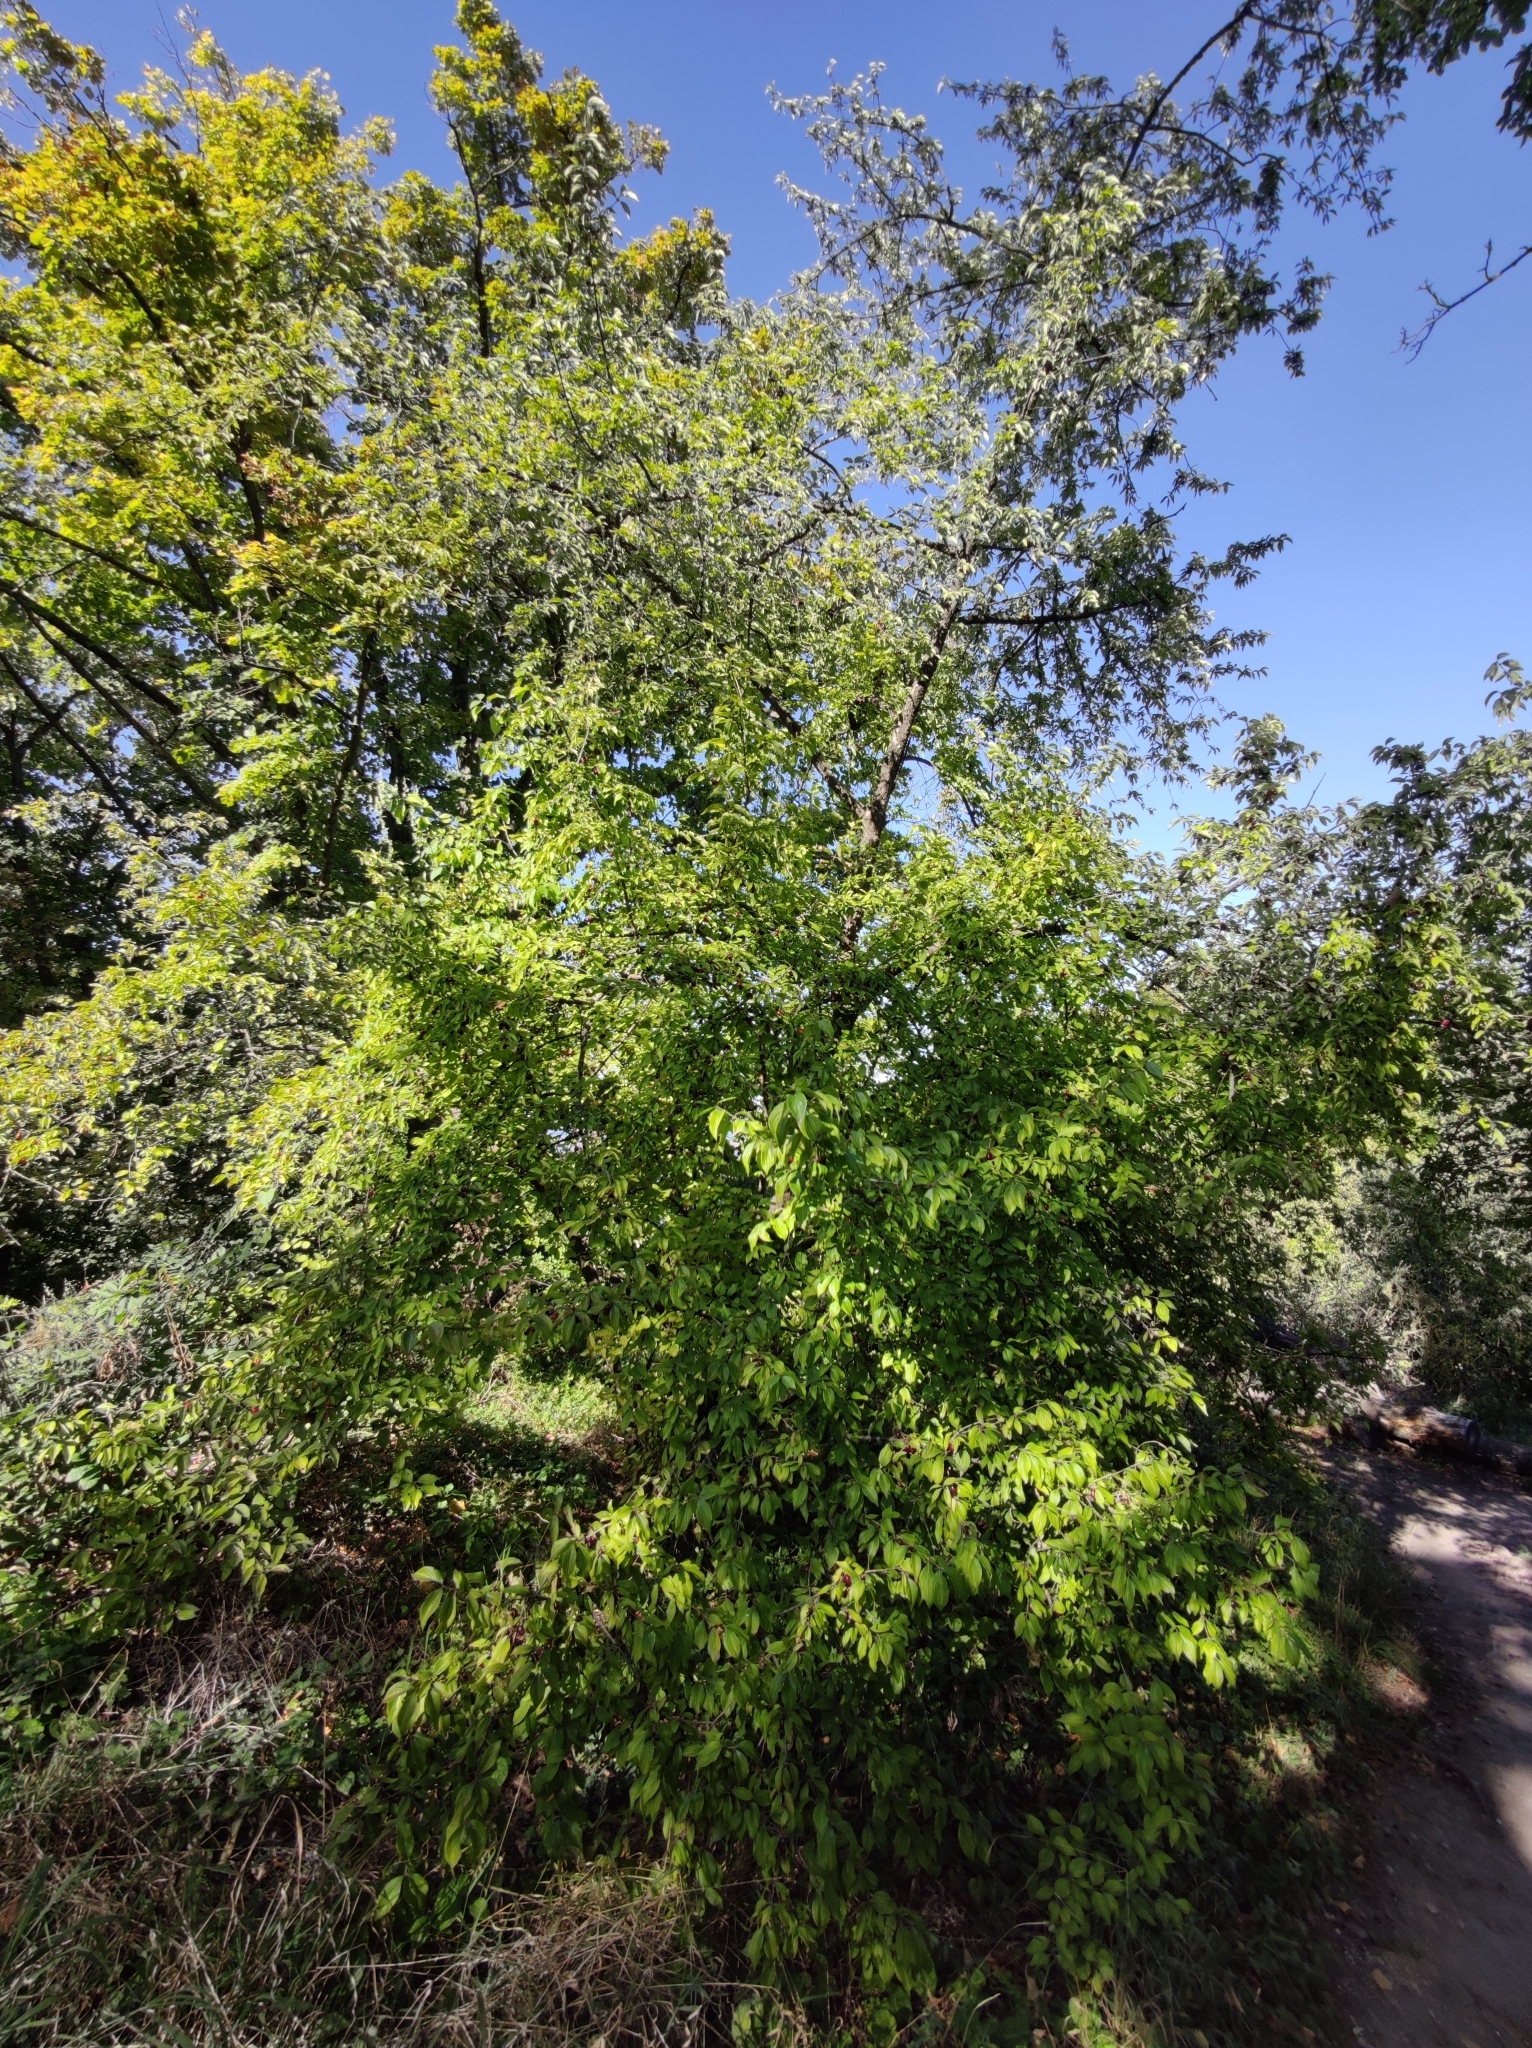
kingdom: Plantae
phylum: Tracheophyta
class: Magnoliopsida
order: Cornales
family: Cornaceae
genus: Cornus
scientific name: Cornus mas
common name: Cornelian-cherry
